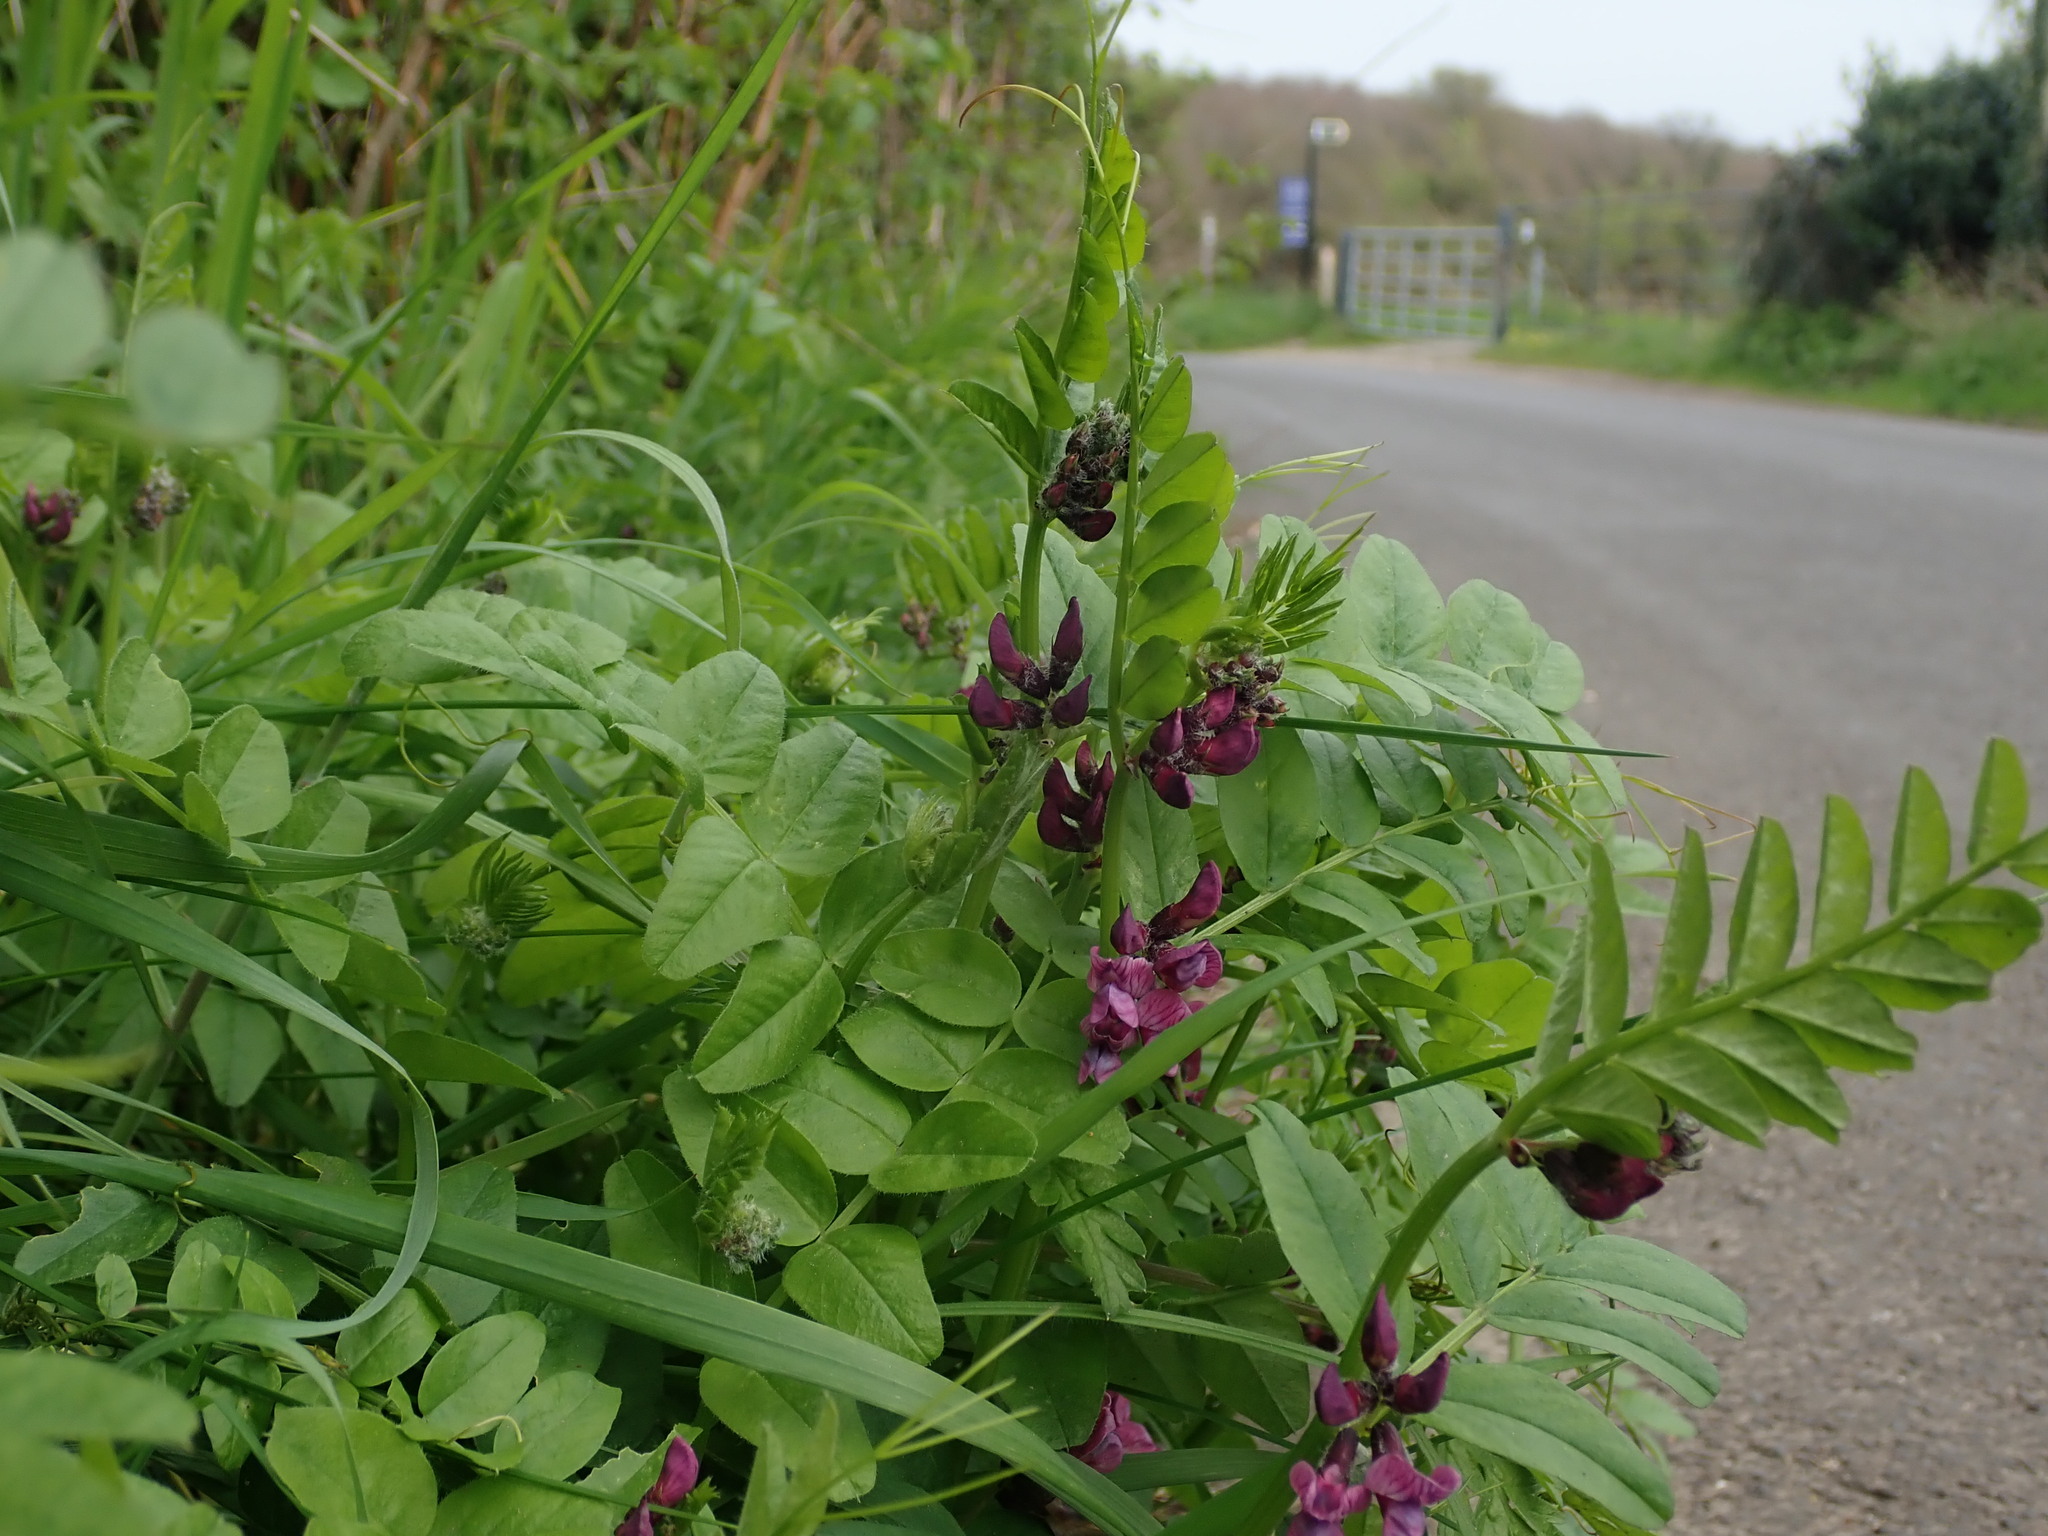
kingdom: Plantae
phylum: Tracheophyta
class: Magnoliopsida
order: Fabales
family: Fabaceae
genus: Vicia
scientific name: Vicia sepium
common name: Bush vetch
